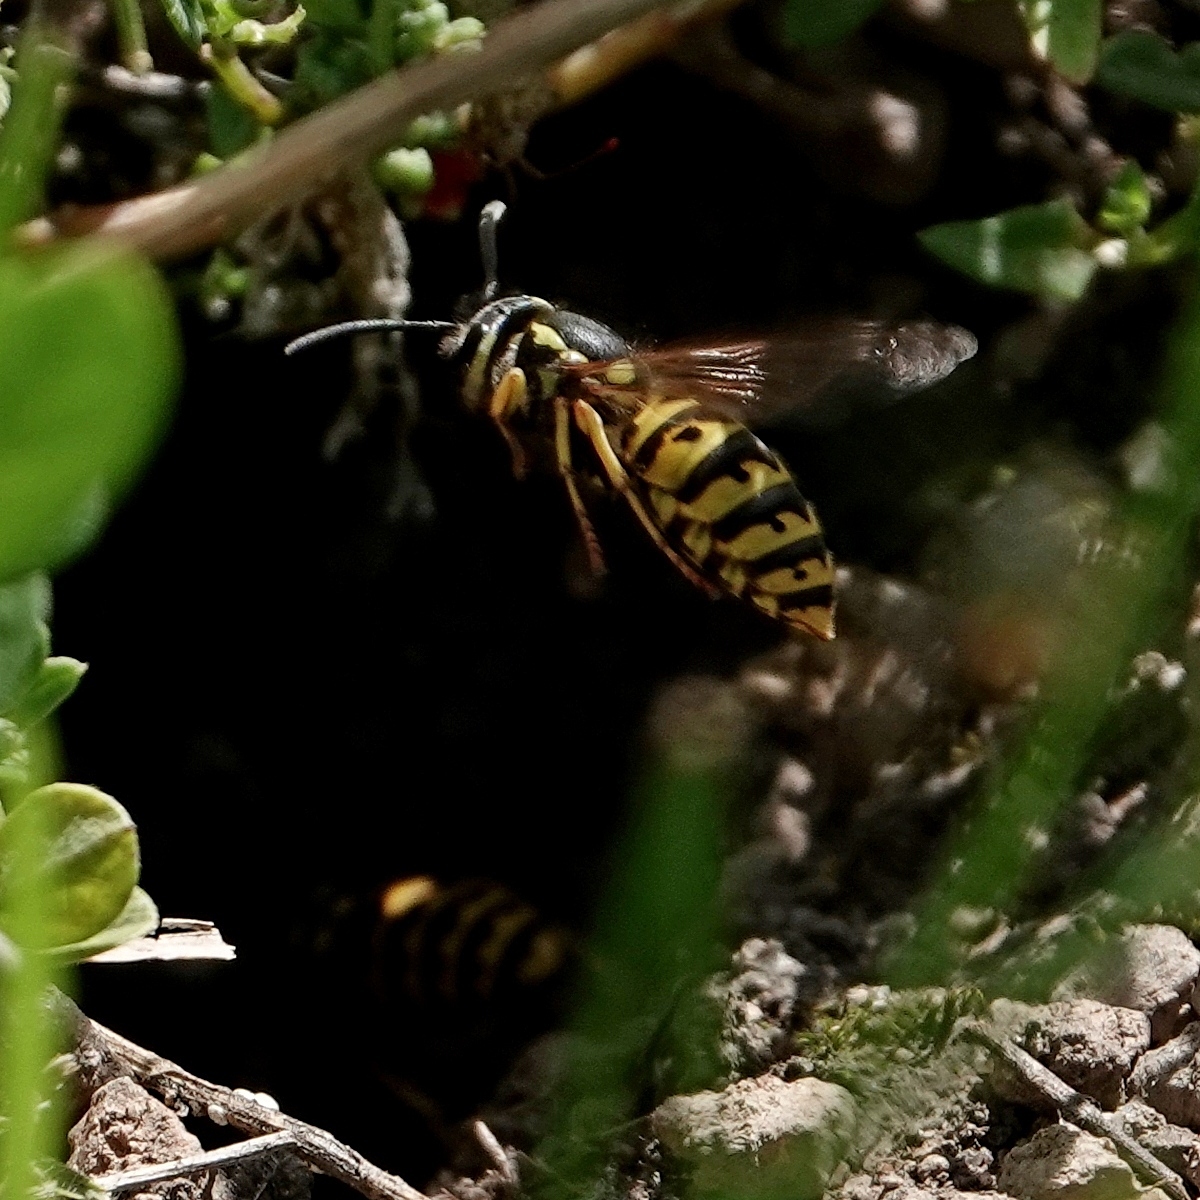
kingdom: Animalia
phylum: Arthropoda
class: Insecta
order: Hymenoptera
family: Vespidae
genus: Vespula
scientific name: Vespula germanica
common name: German wasp
